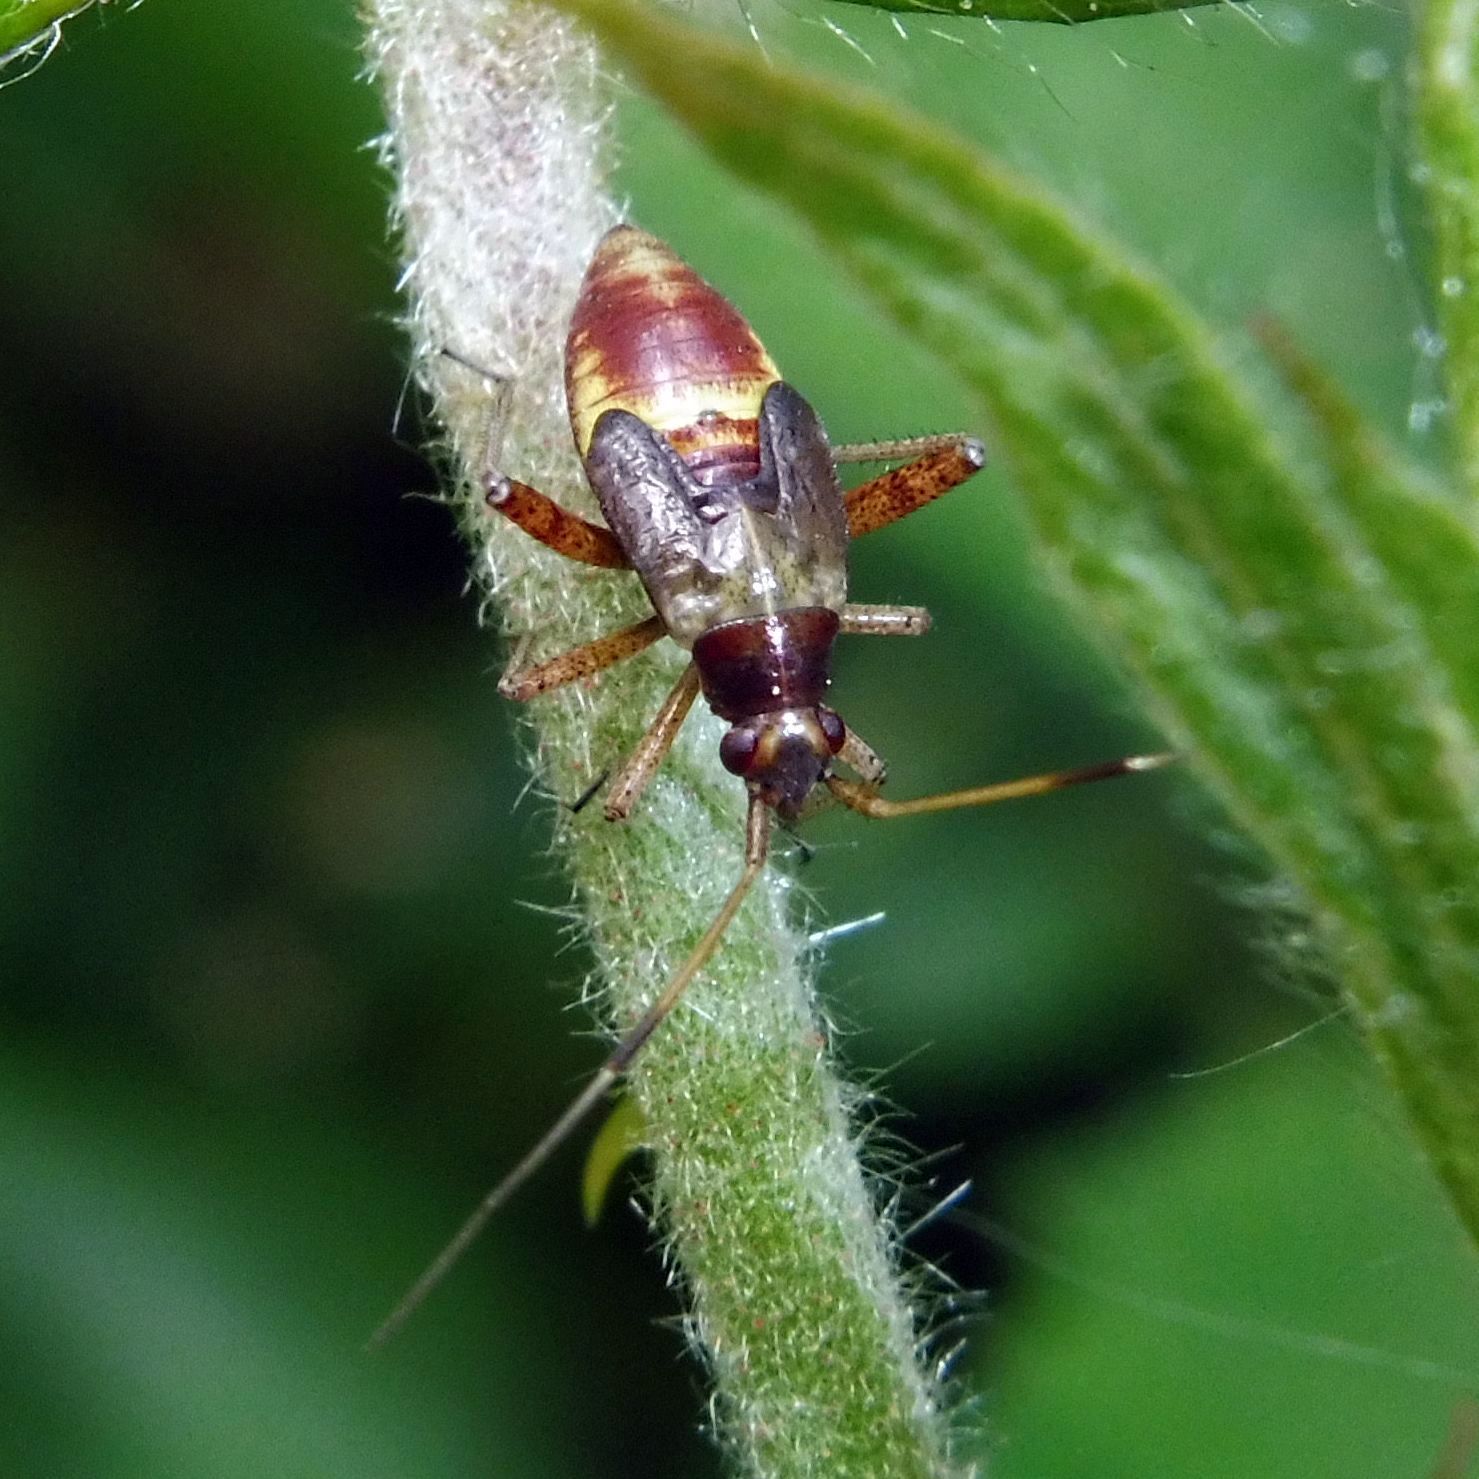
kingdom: Animalia
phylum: Arthropoda
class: Insecta
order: Hemiptera
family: Miridae
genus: Closterotomus
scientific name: Closterotomus fulvomaculatus
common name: Spotted plant bug
